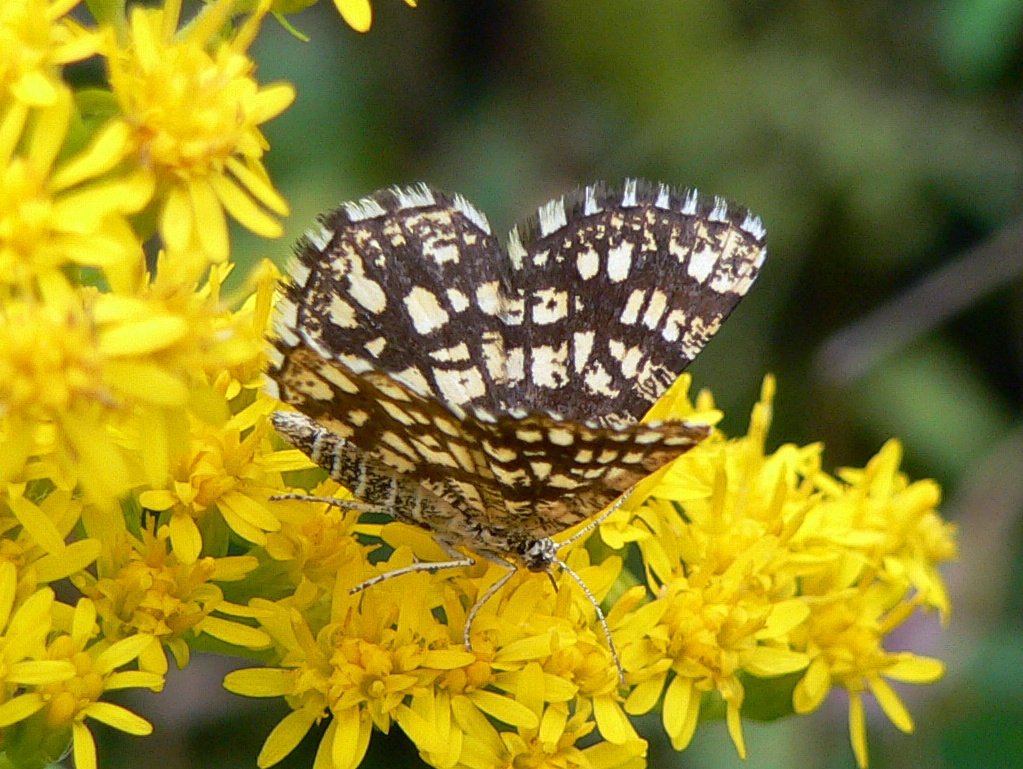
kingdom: Animalia
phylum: Arthropoda
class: Insecta
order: Lepidoptera
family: Geometridae
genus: Chiasmia
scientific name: Chiasmia clathrata
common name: Latticed heath
